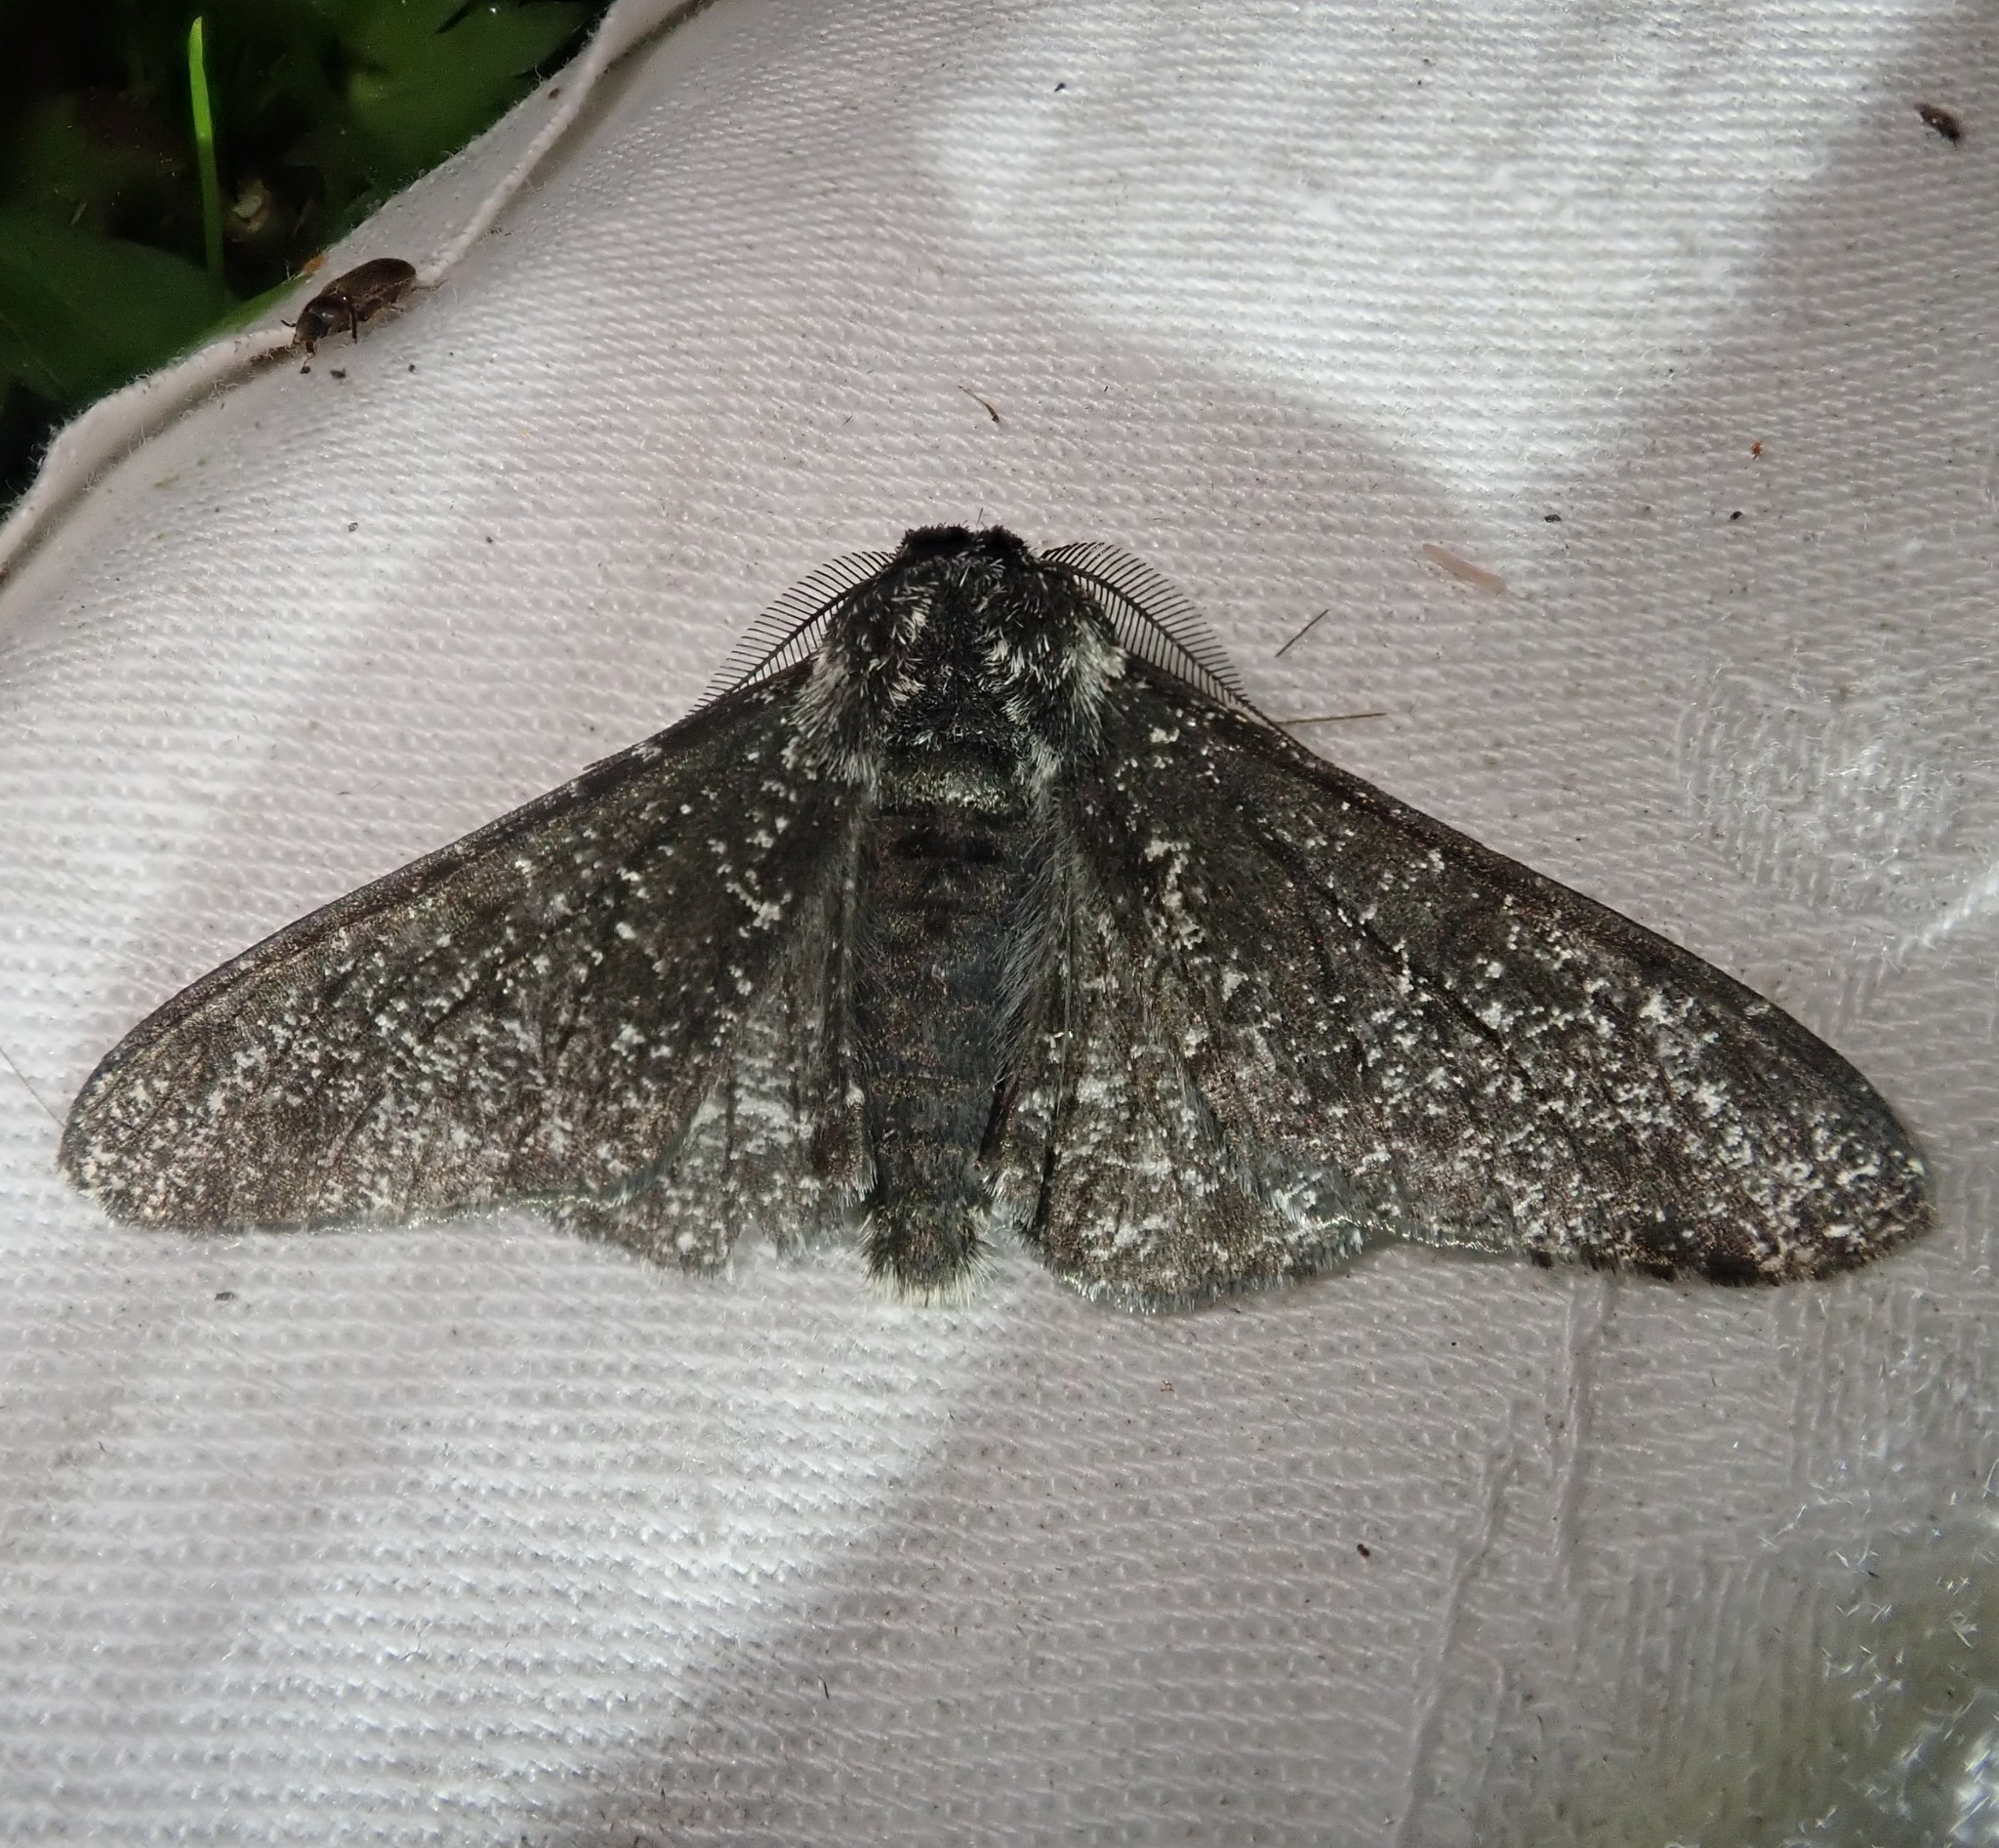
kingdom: Animalia
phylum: Arthropoda
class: Insecta
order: Lepidoptera
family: Geometridae
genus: Biston
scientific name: Biston betularia
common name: Peppered moth
